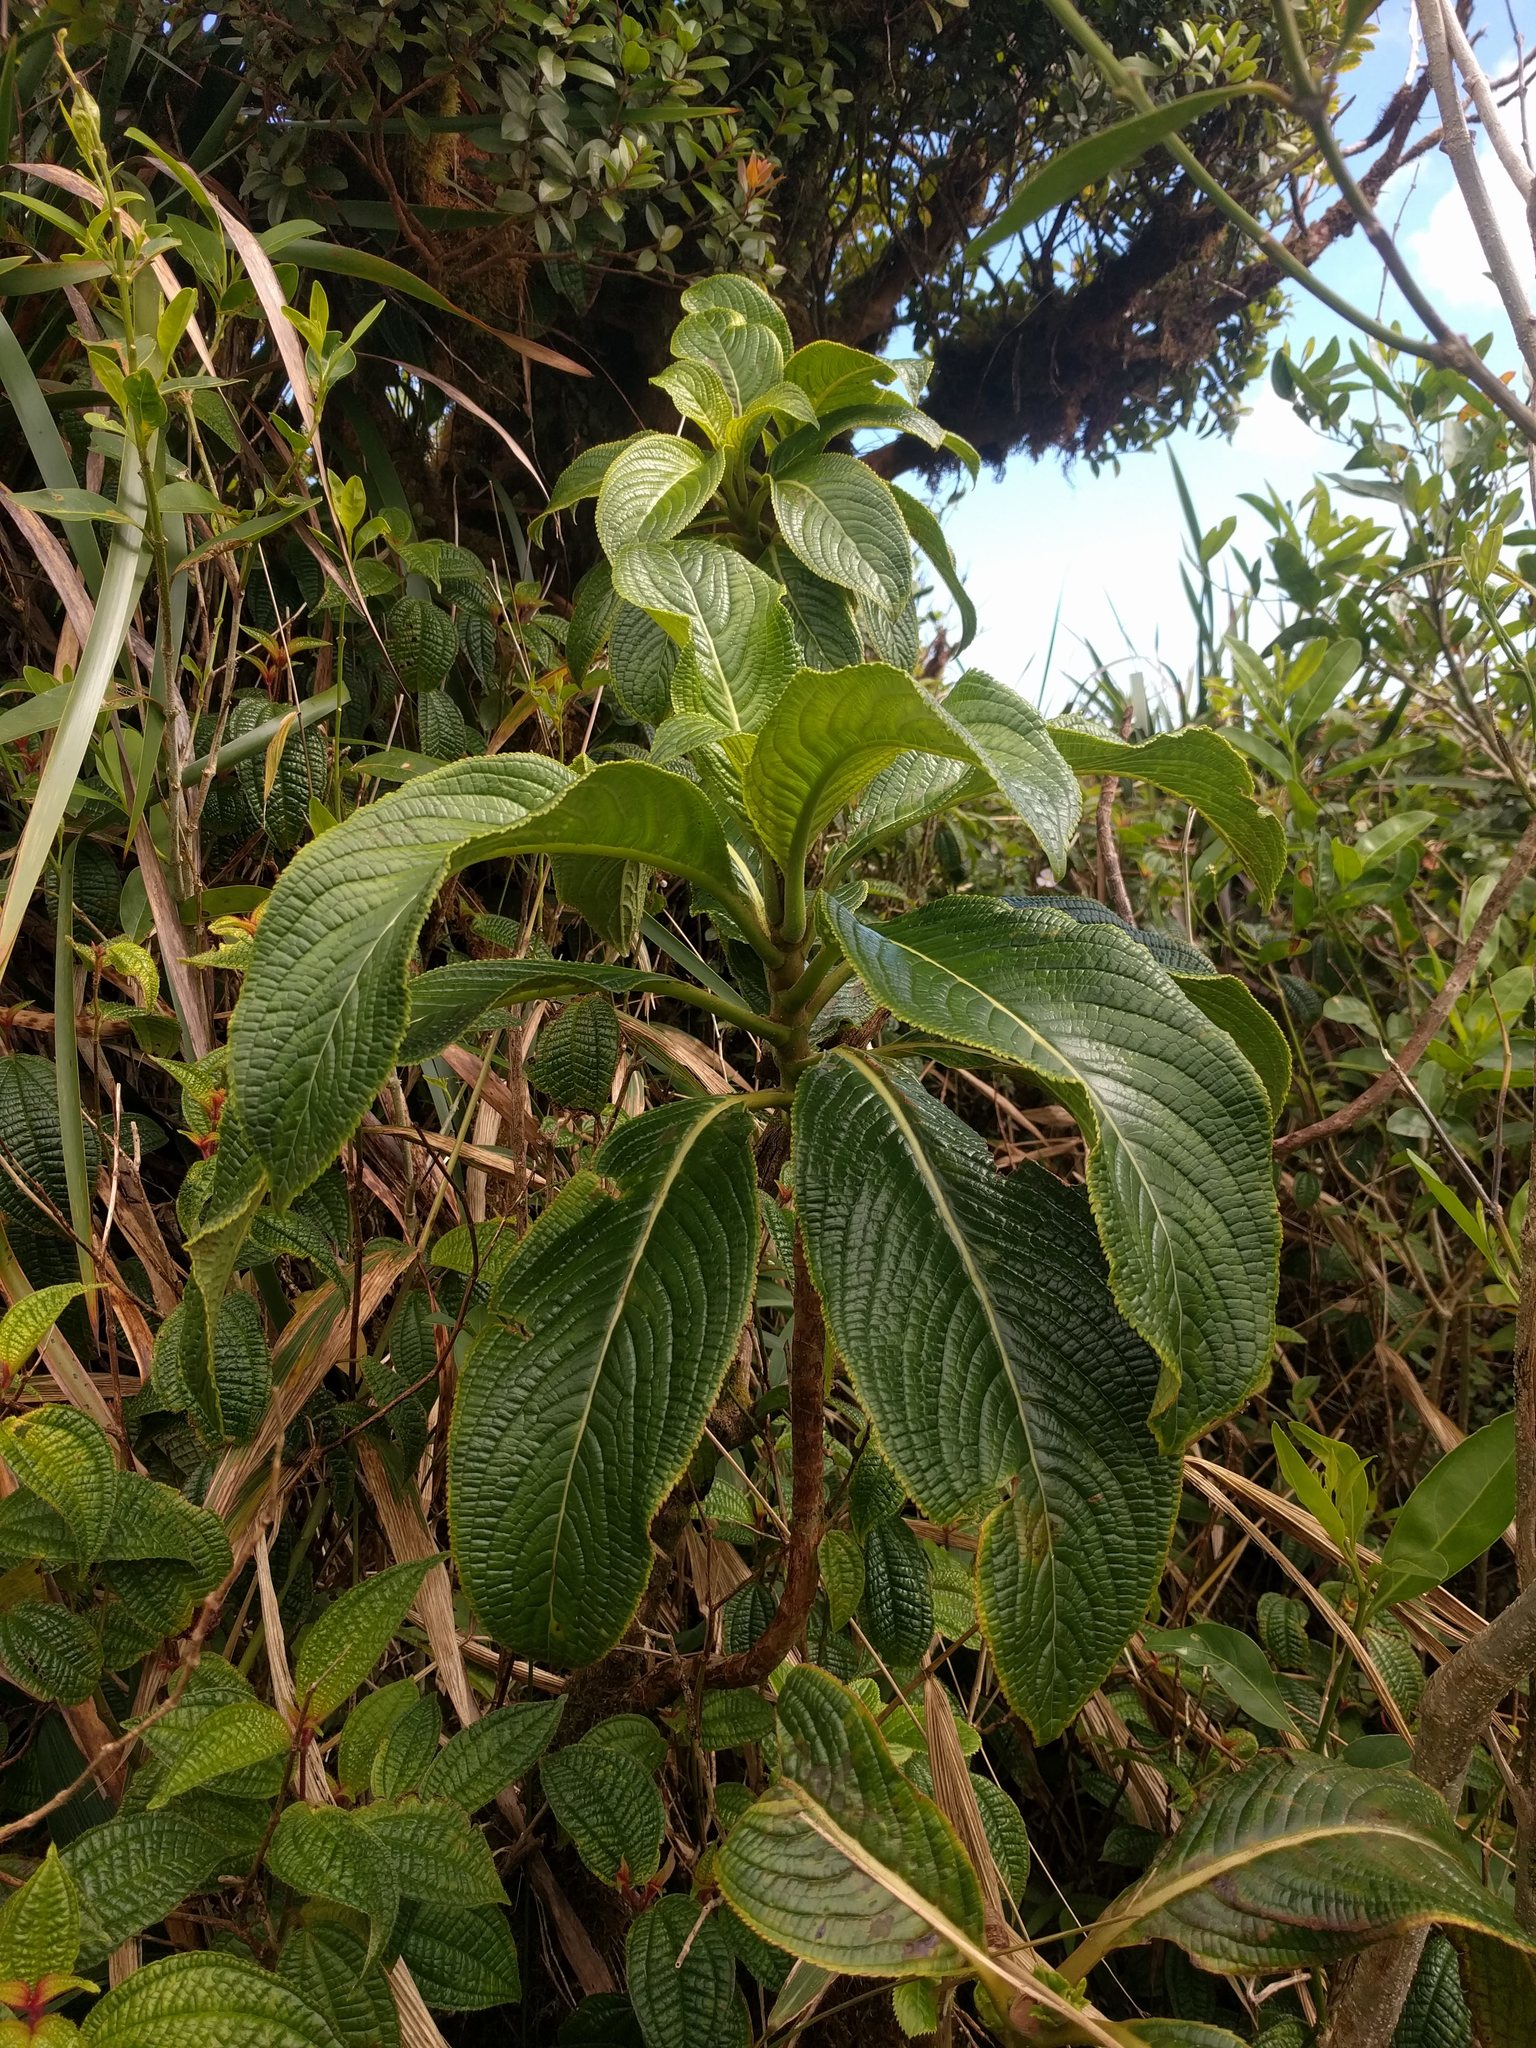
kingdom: Plantae
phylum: Tracheophyta
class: Magnoliopsida
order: Cornales
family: Hydrangeaceae
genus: Hydrangea
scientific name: Hydrangea arguta
